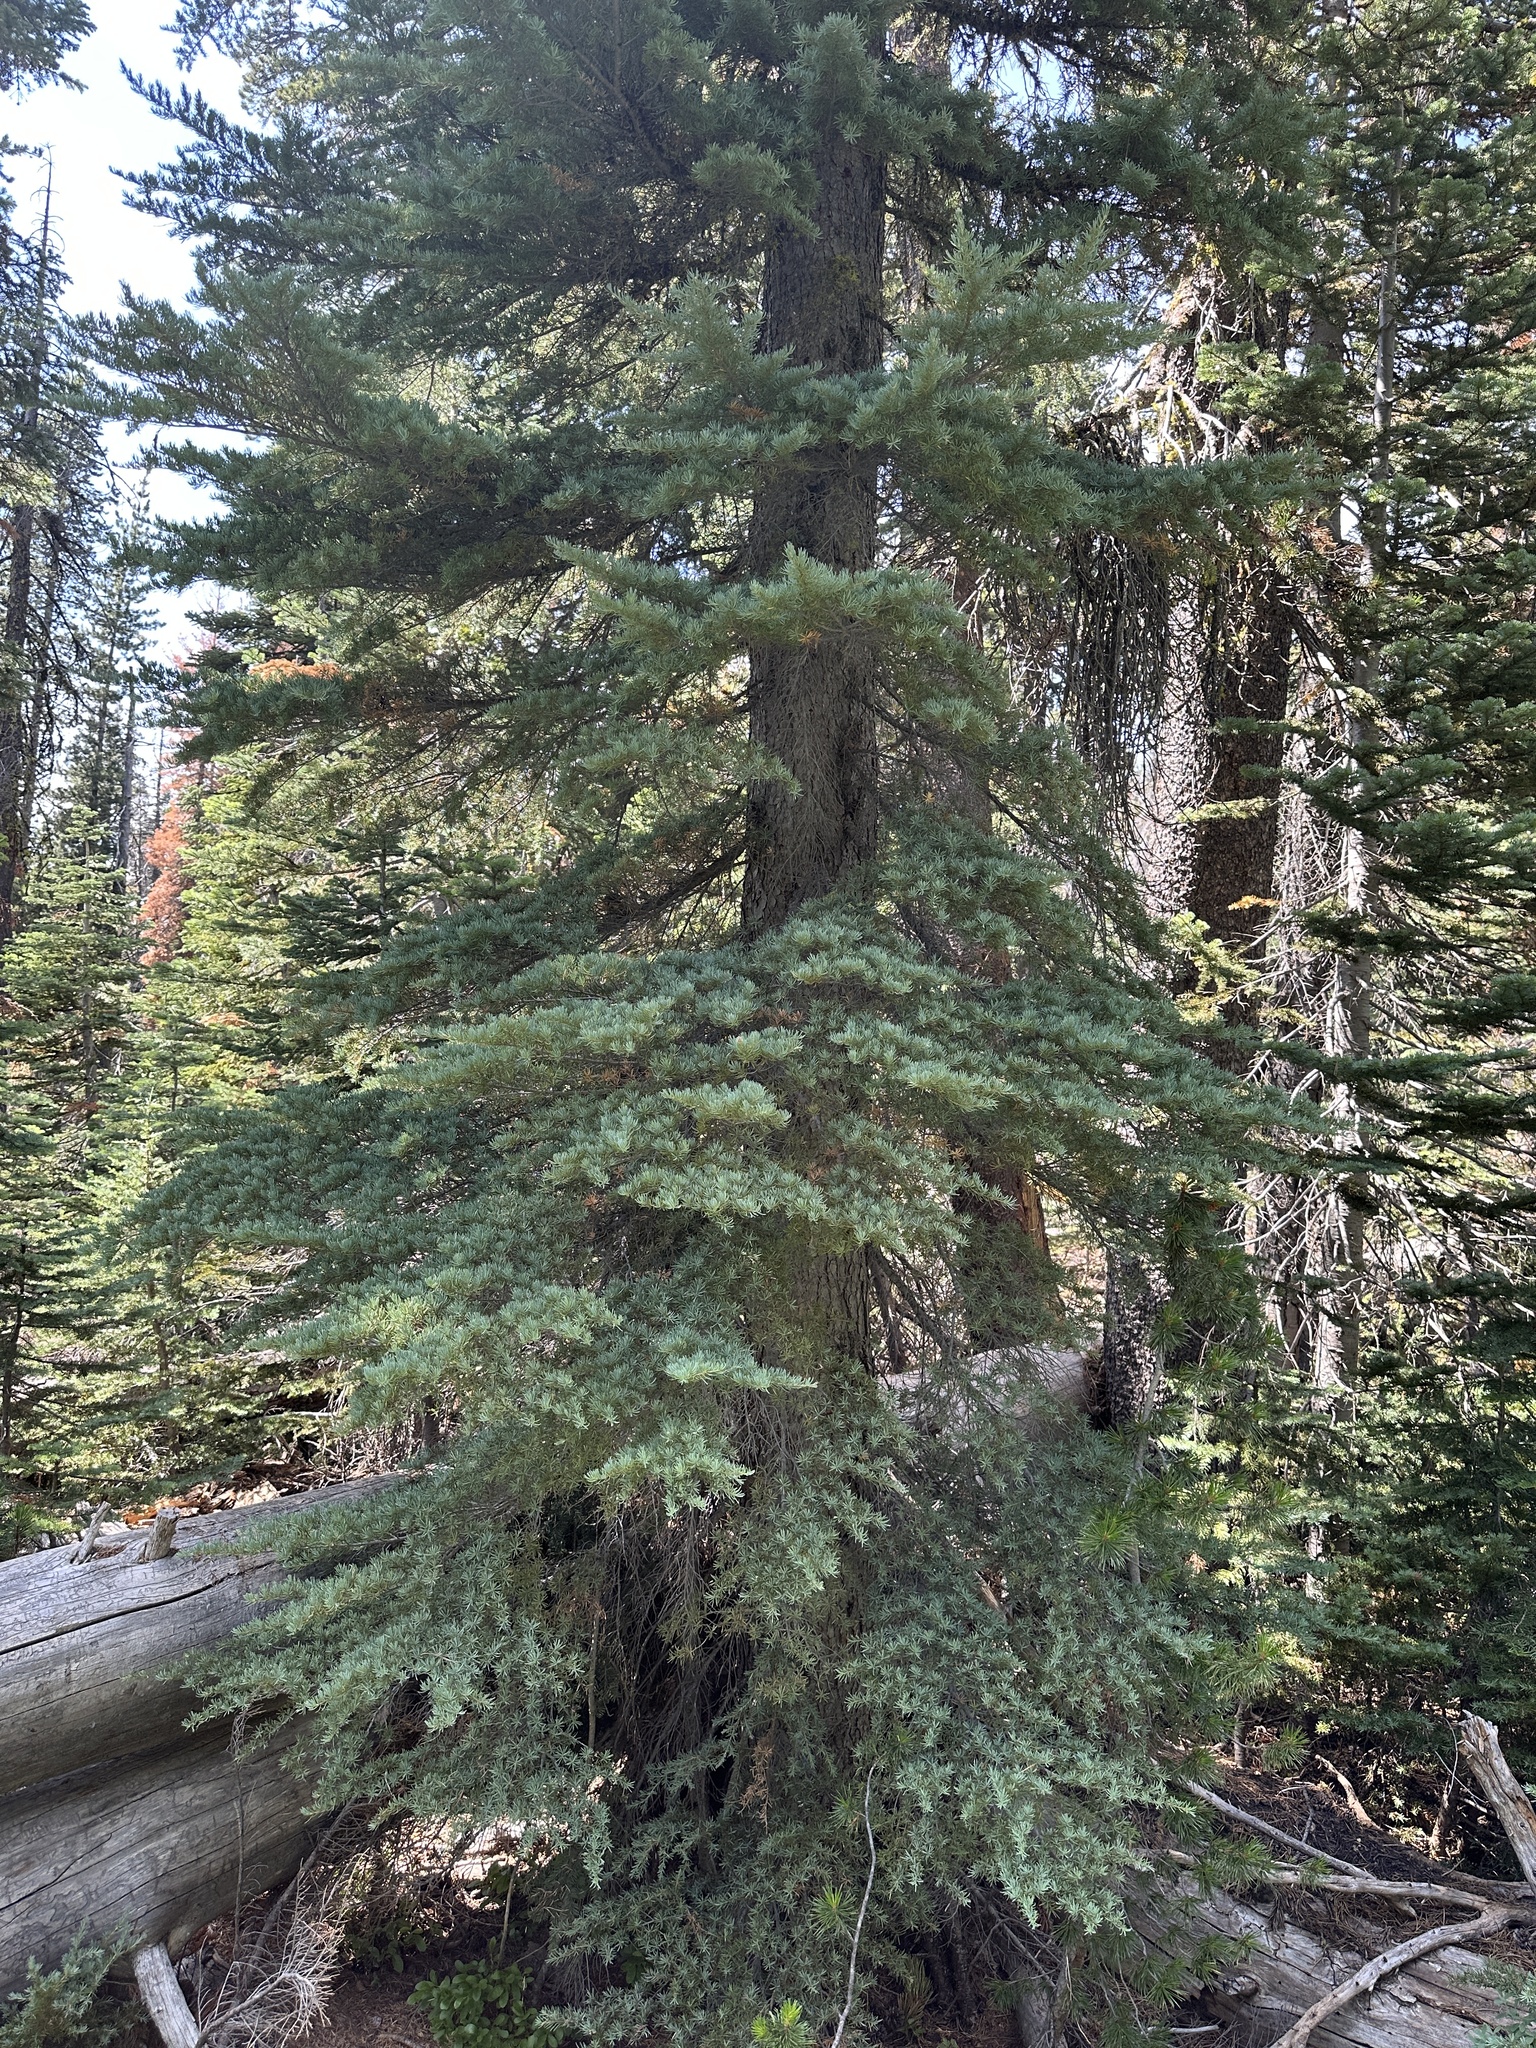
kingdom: Plantae
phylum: Tracheophyta
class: Pinopsida
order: Pinales
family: Pinaceae
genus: Tsuga
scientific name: Tsuga mertensiana
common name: Mountain hemlock
